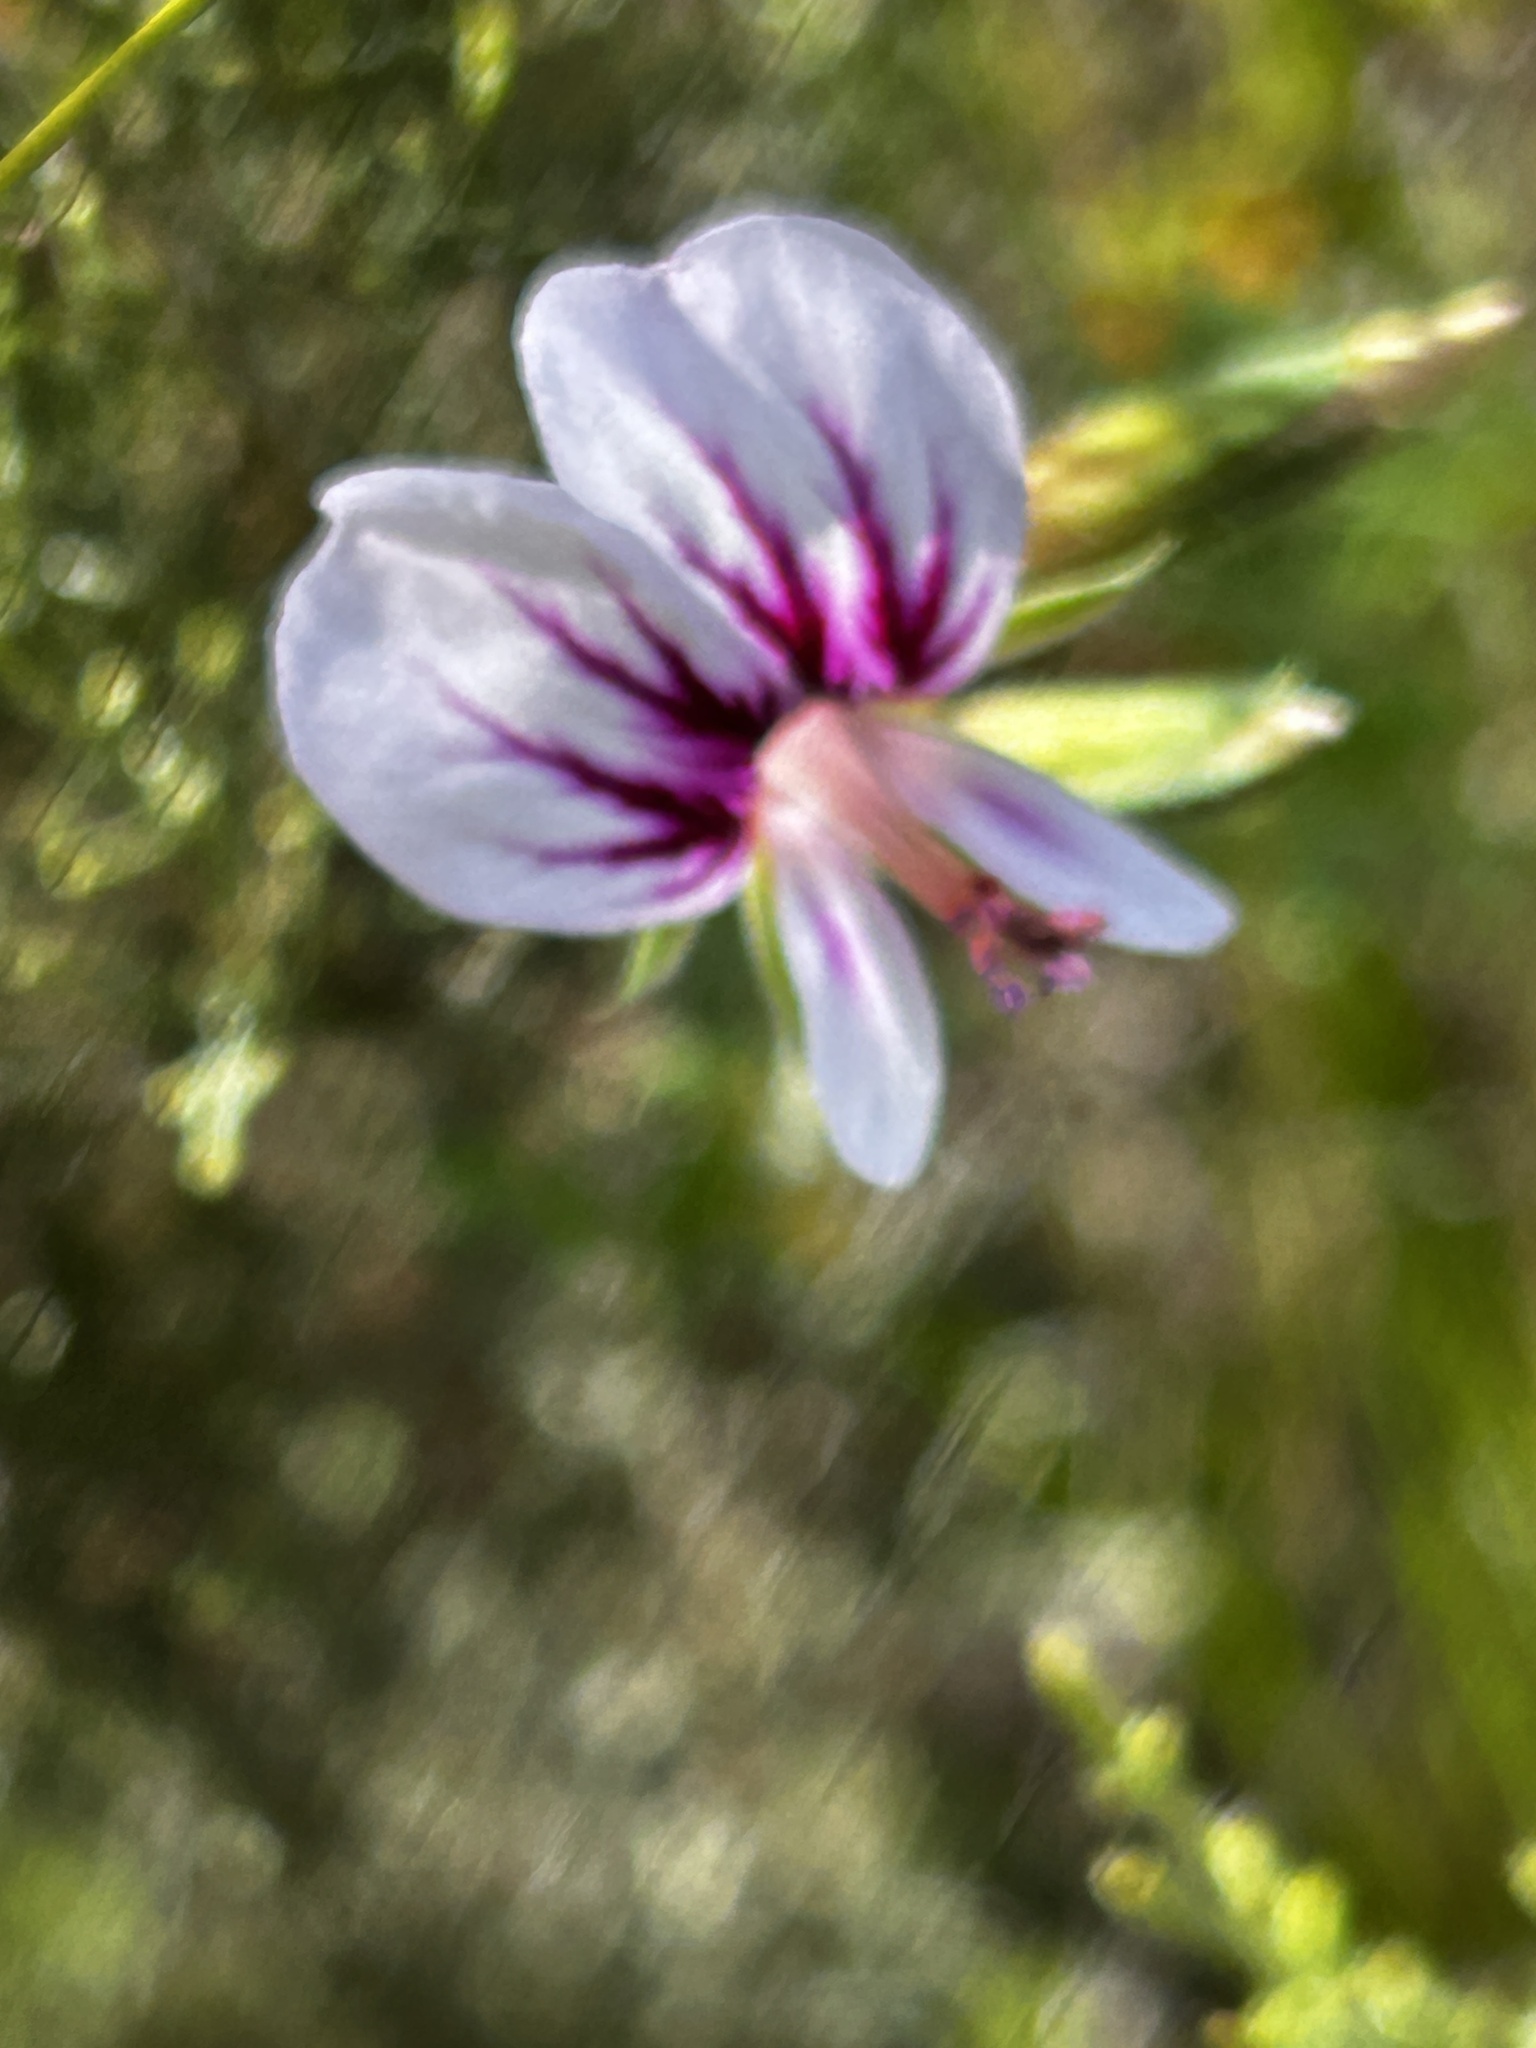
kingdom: Plantae
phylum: Tracheophyta
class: Magnoliopsida
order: Geraniales
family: Geraniaceae
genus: Pelargonium
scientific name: Pelargonium candicans
